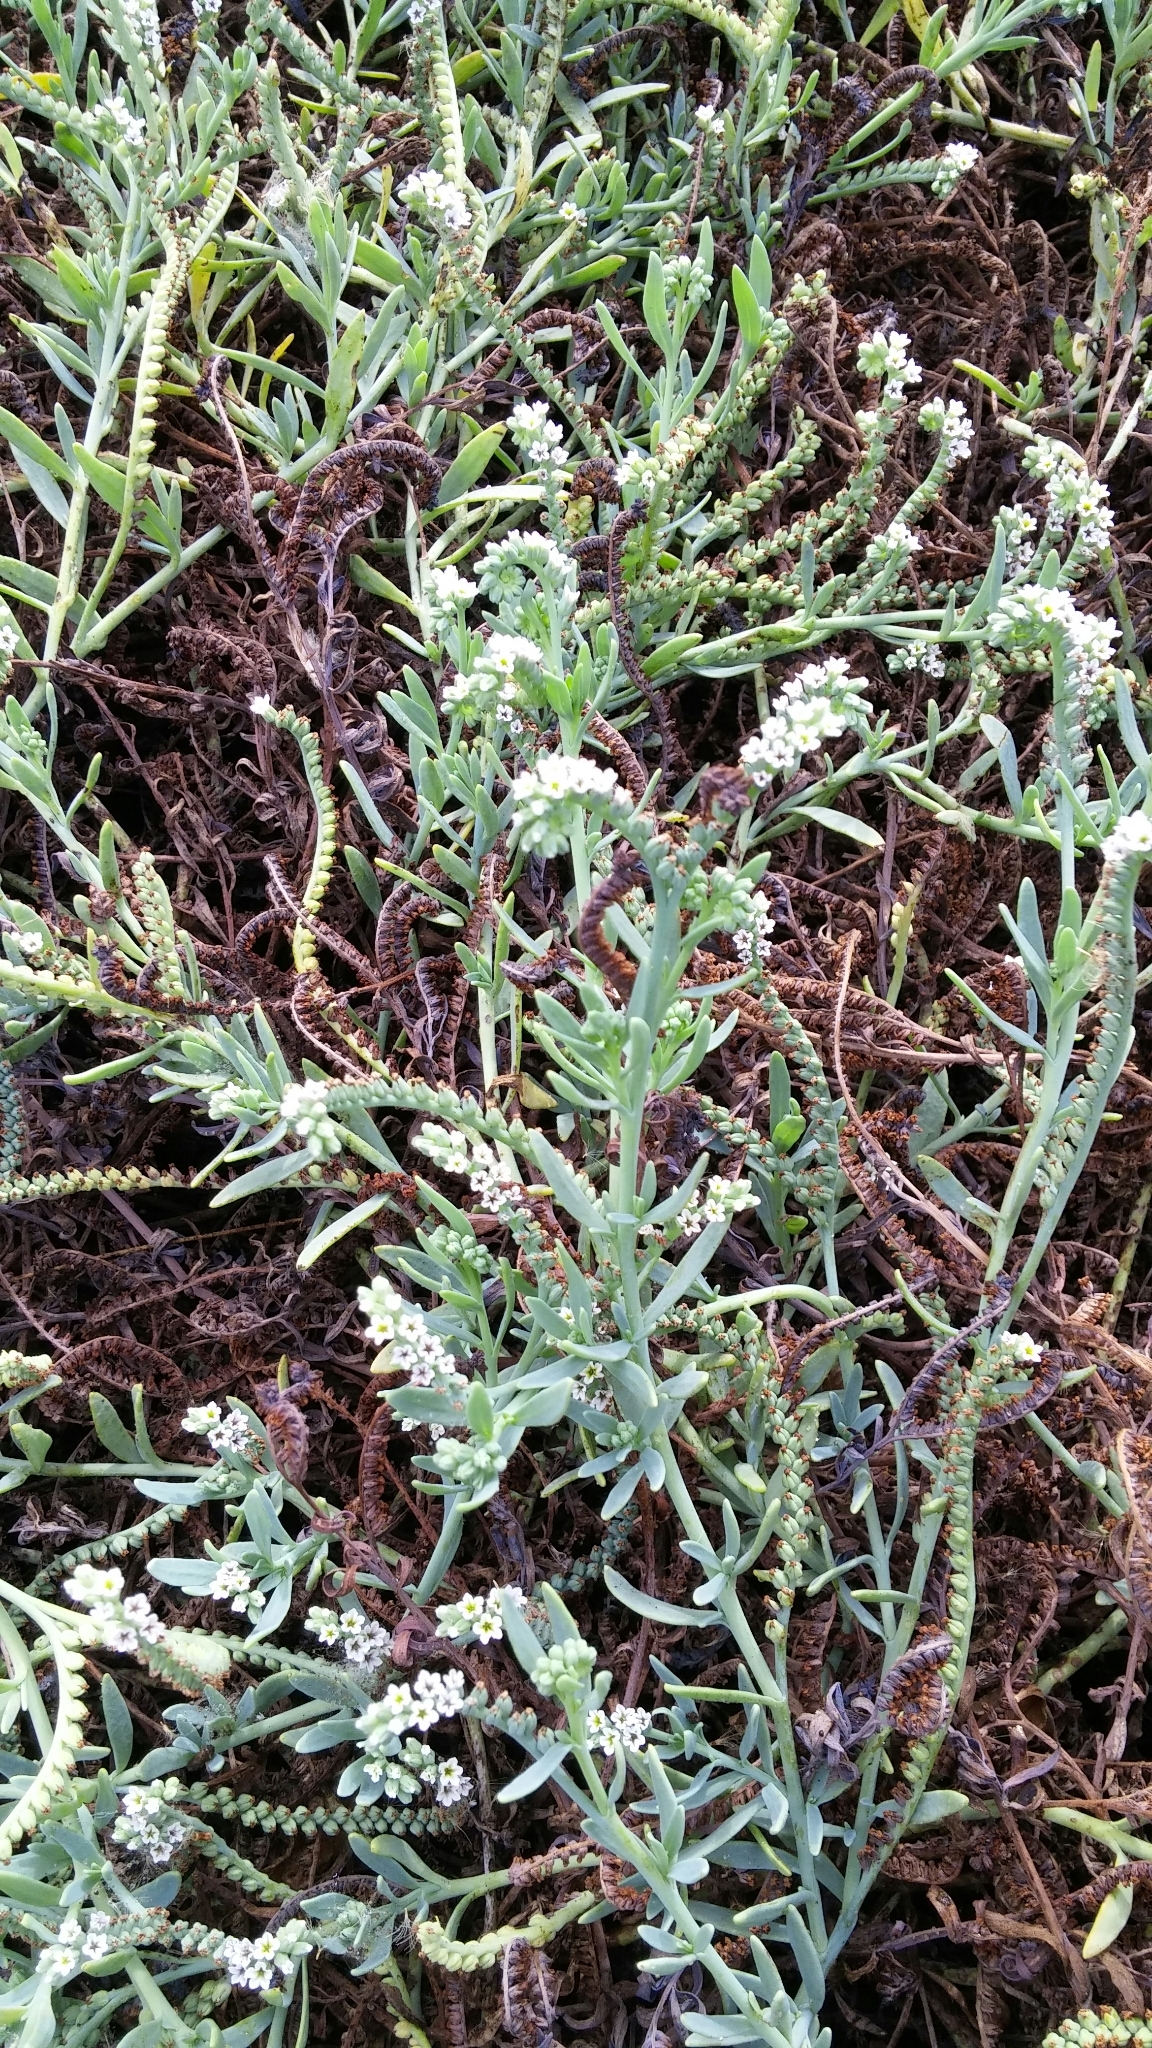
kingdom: Plantae
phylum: Tracheophyta
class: Magnoliopsida
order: Boraginales
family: Heliotropiaceae
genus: Heliotropium
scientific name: Heliotropium curassavicum
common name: Seaside heliotrope
